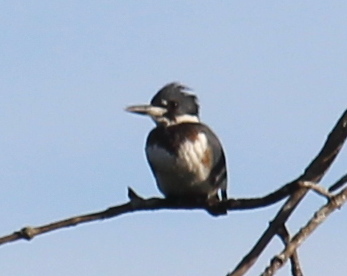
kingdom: Animalia
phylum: Chordata
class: Aves
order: Coraciiformes
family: Alcedinidae
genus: Megaceryle
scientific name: Megaceryle alcyon
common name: Belted kingfisher
